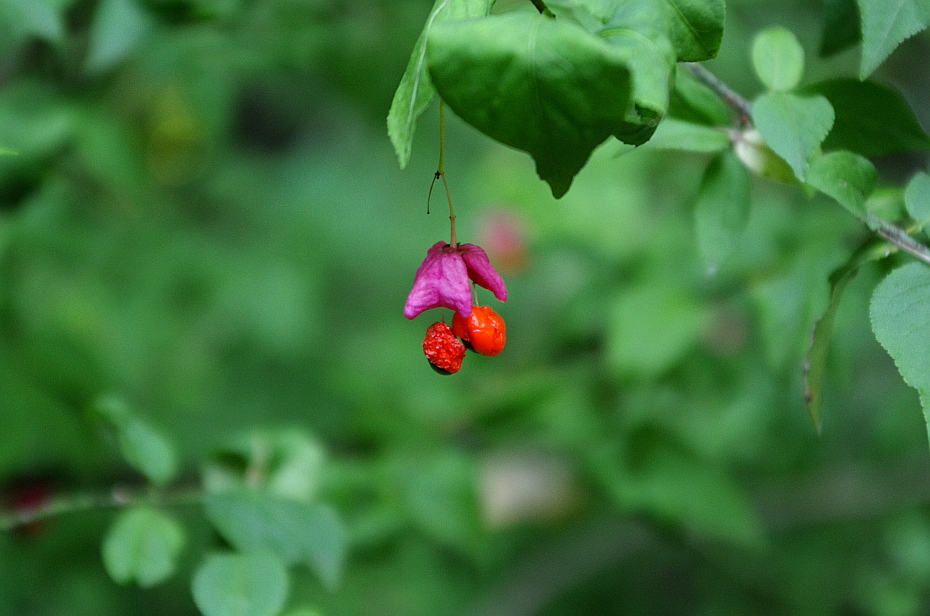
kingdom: Plantae
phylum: Tracheophyta
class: Magnoliopsida
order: Celastrales
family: Celastraceae
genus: Euonymus
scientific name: Euonymus verrucosus
